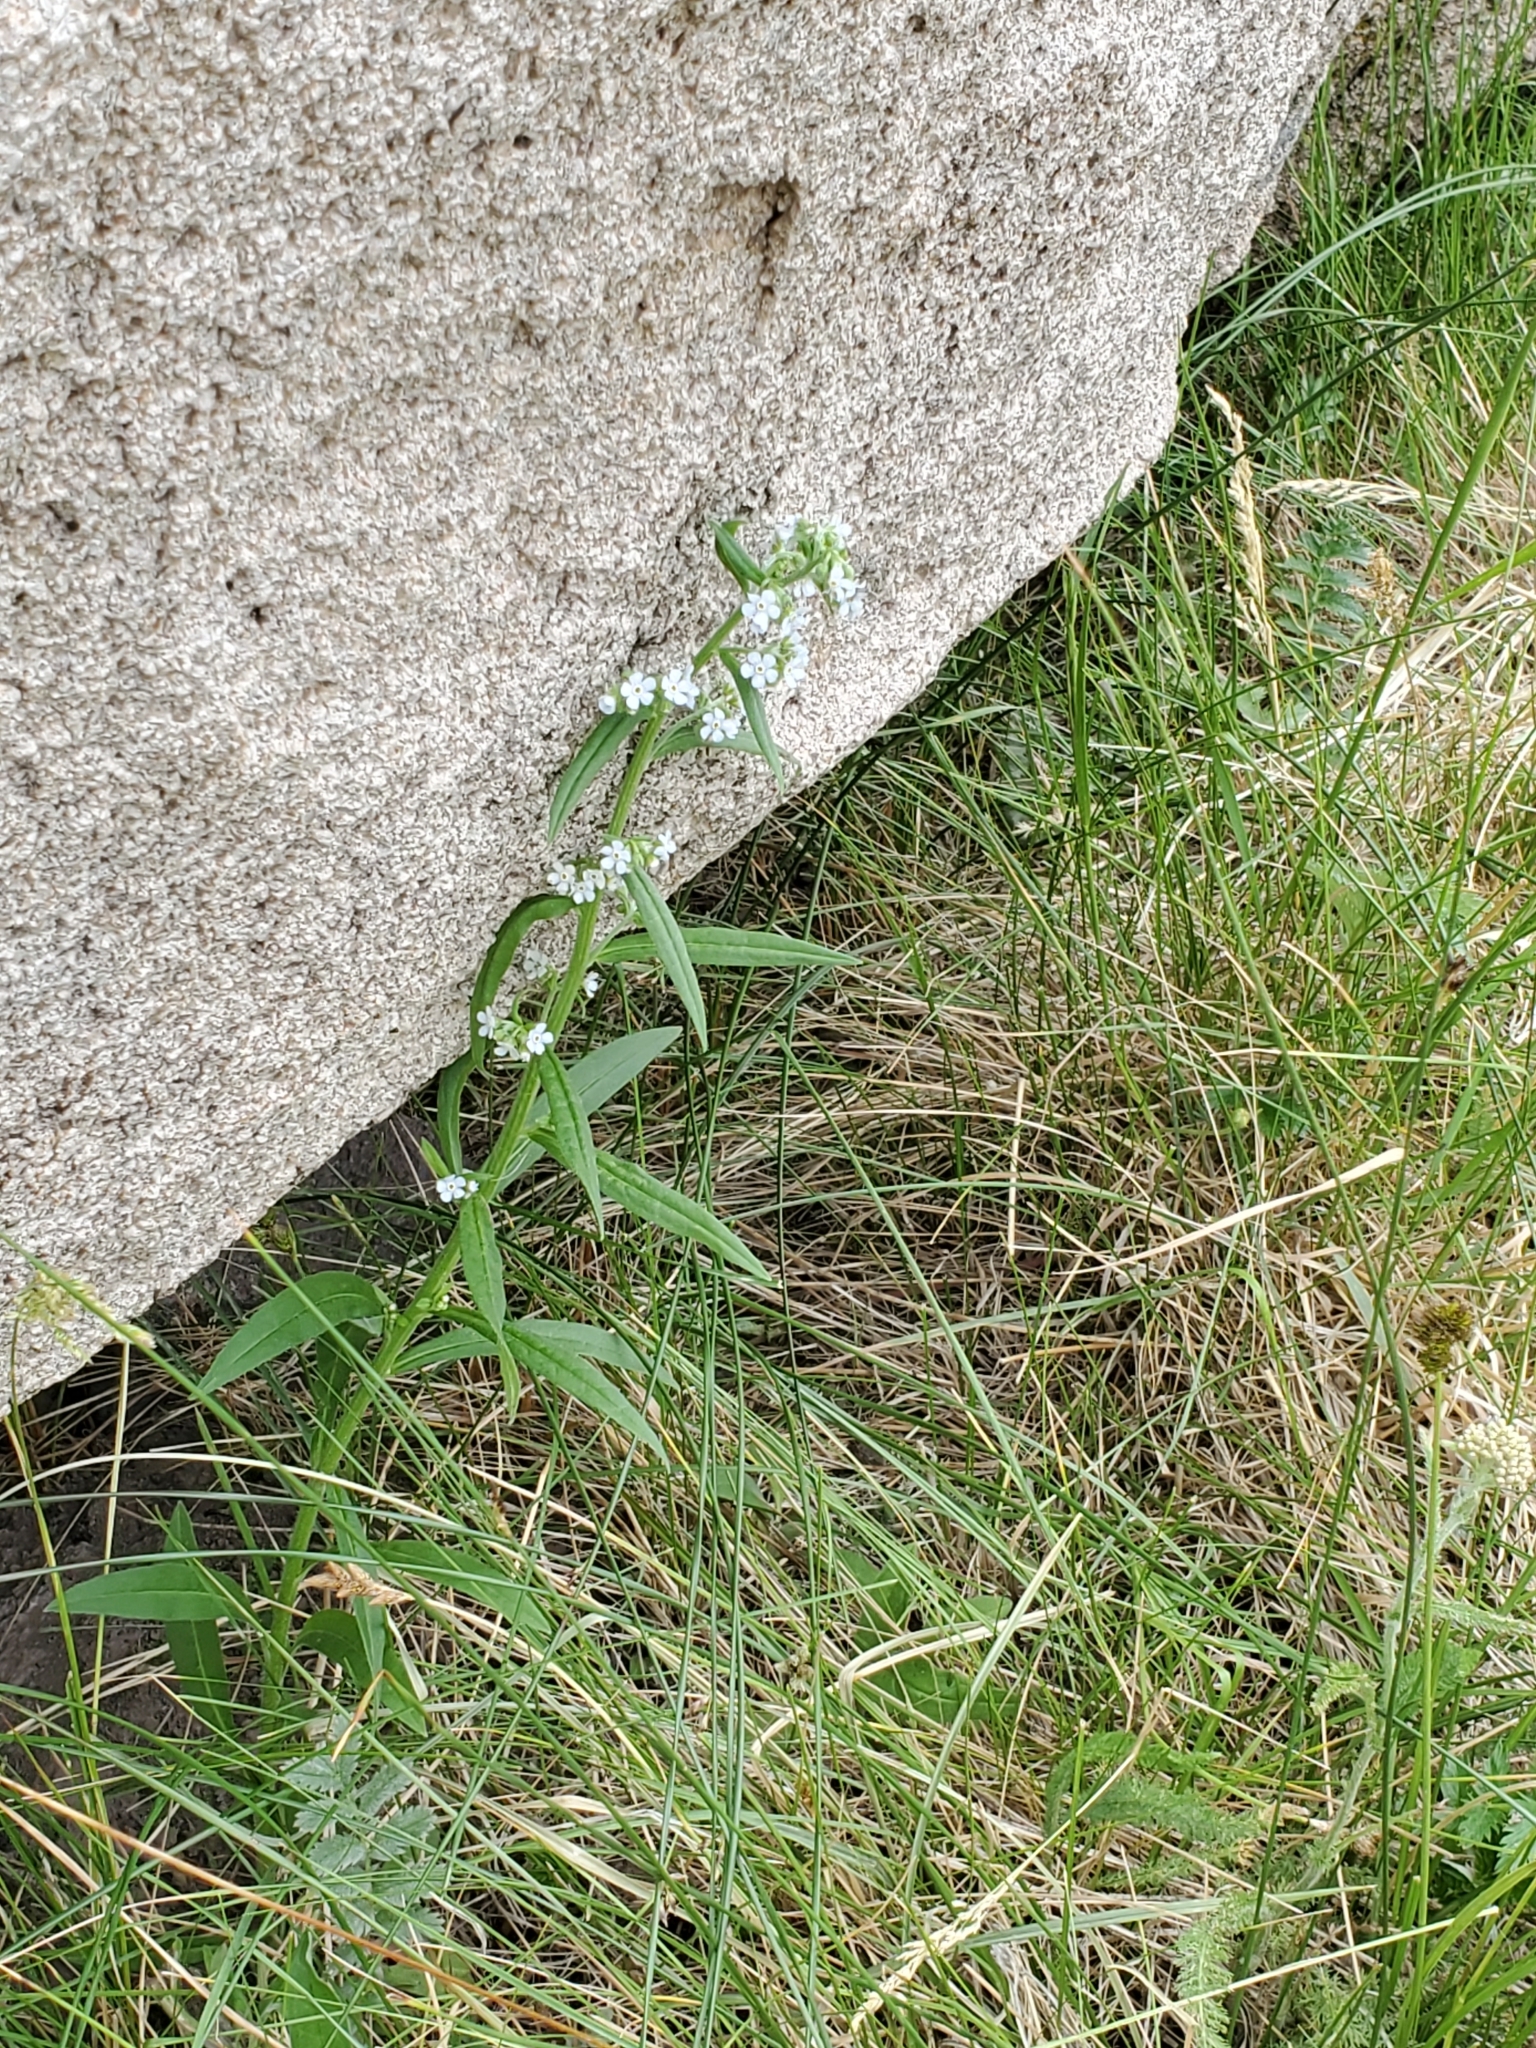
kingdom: Plantae
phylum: Tracheophyta
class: Magnoliopsida
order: Boraginales
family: Boraginaceae
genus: Hackelia
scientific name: Hackelia floribunda
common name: Large-flowered stickseed
